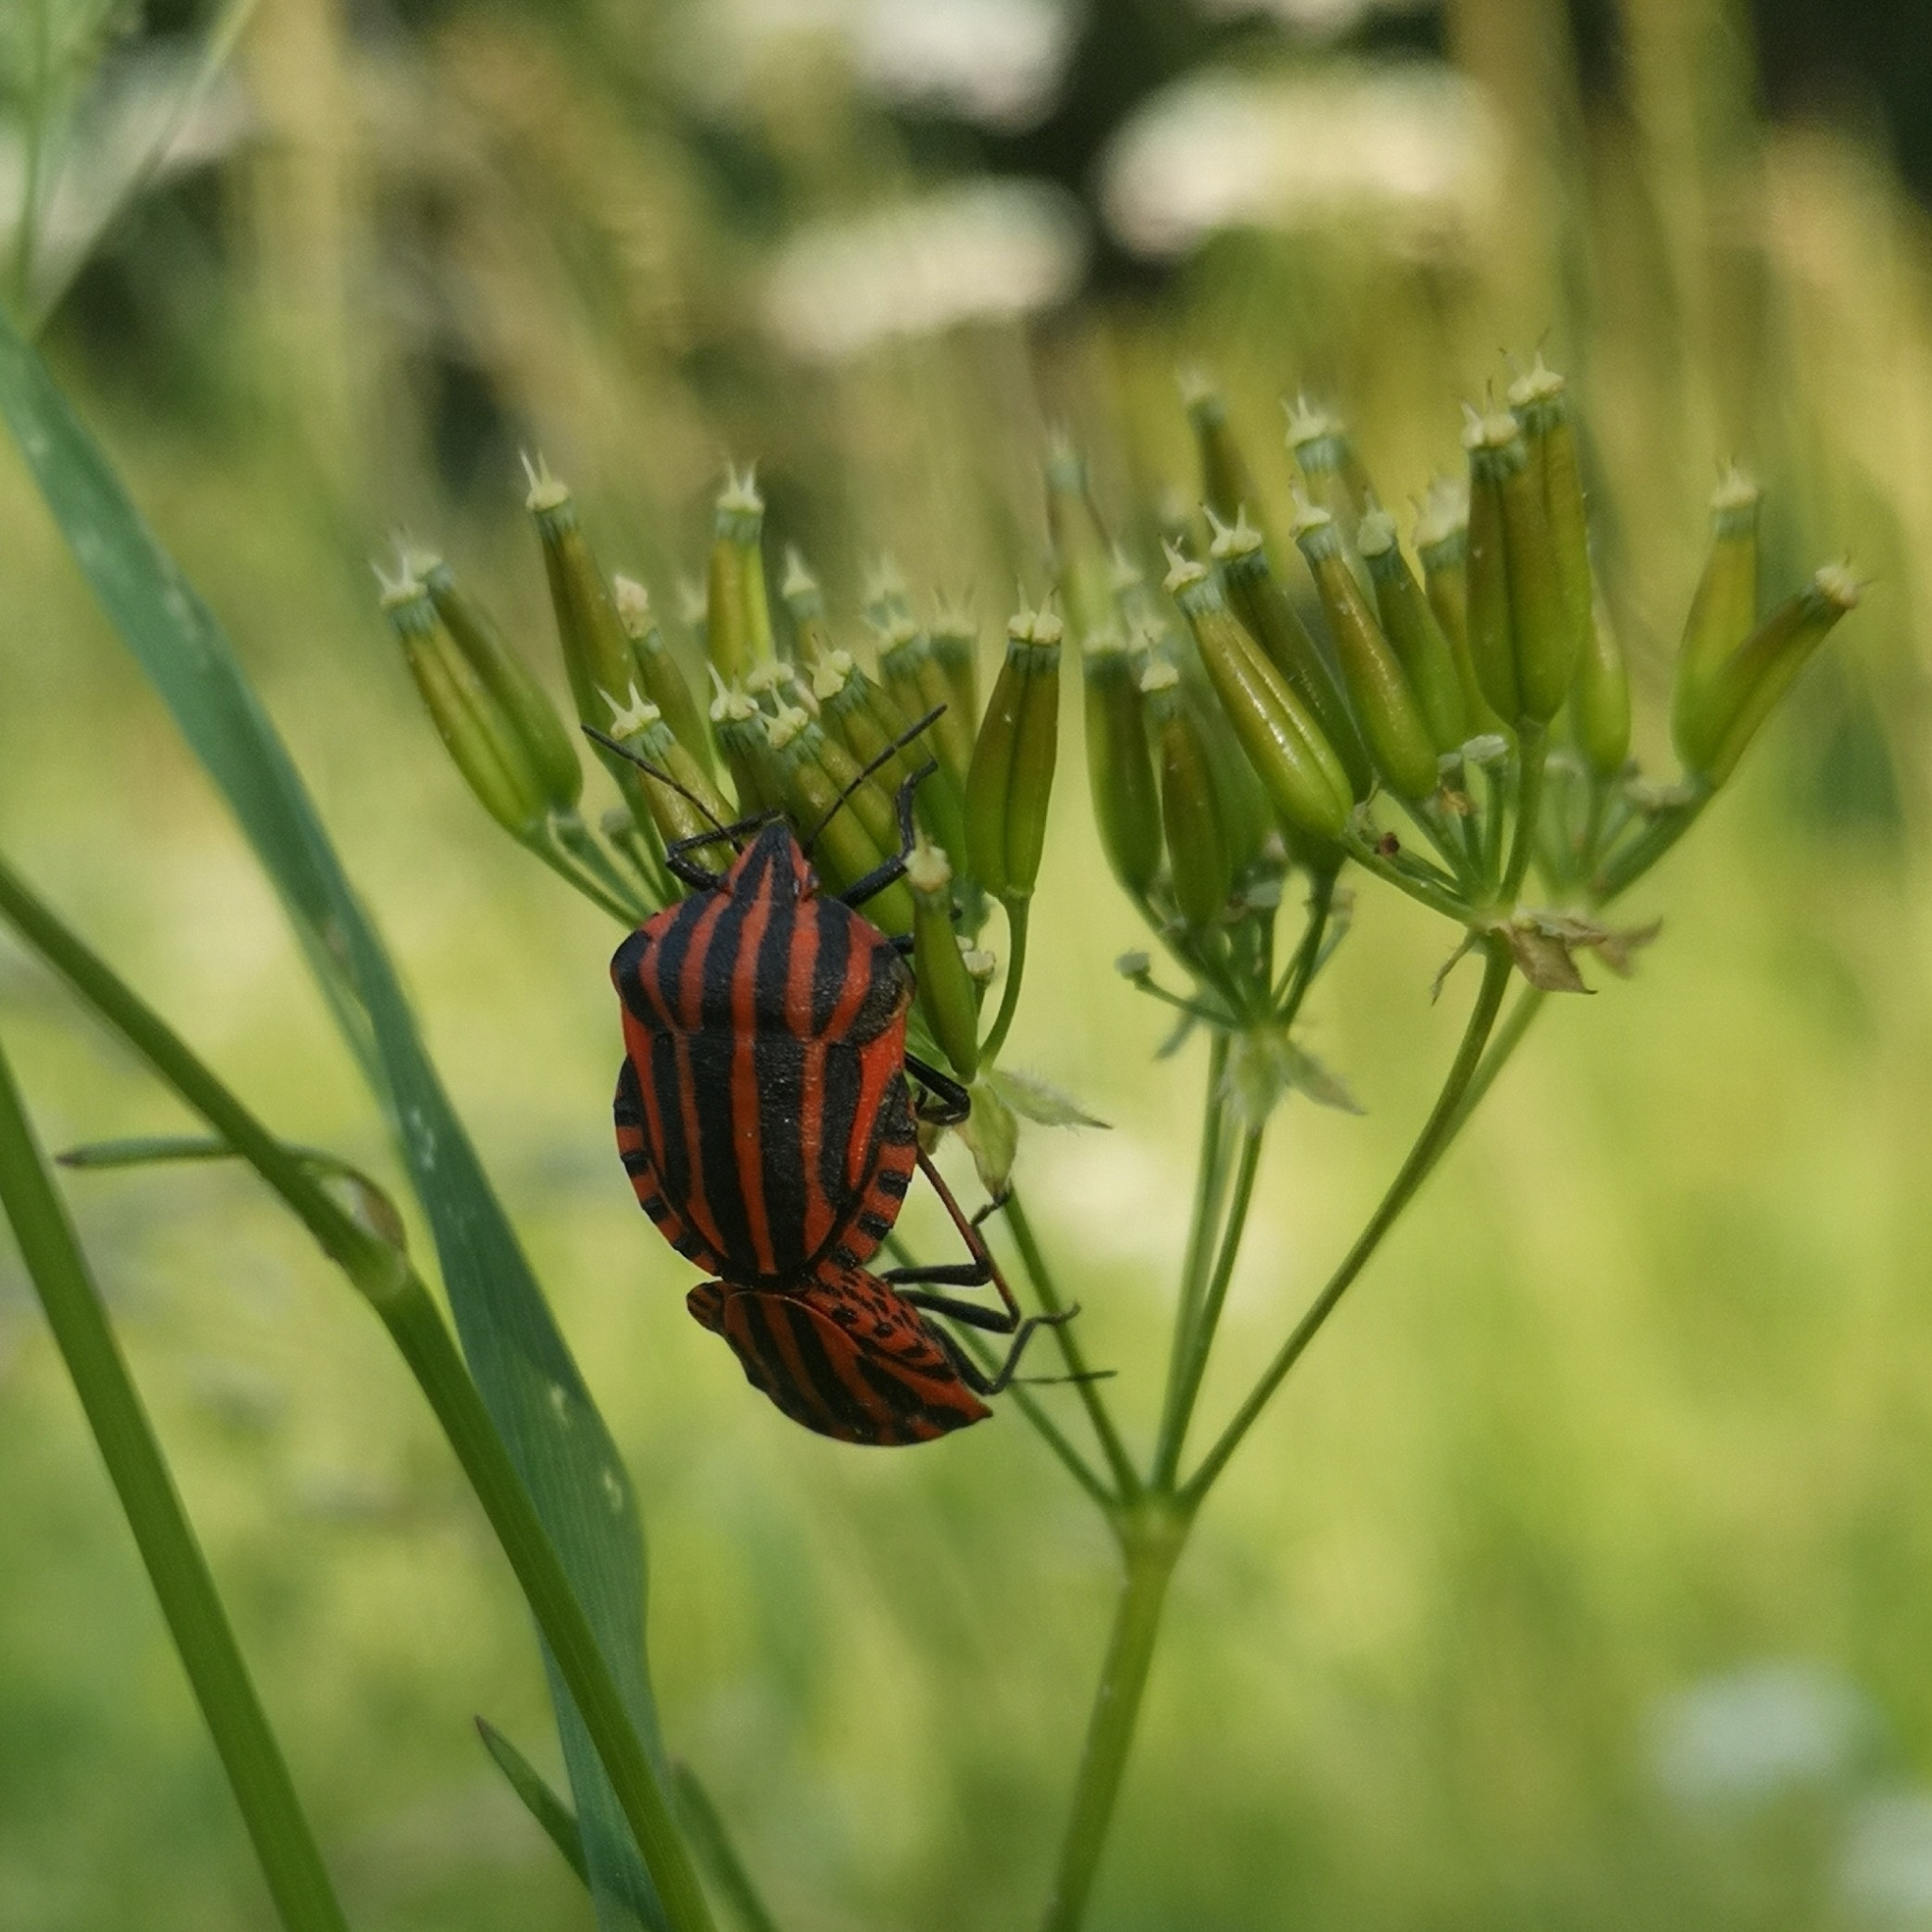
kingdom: Animalia
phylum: Arthropoda
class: Insecta
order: Hemiptera
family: Pentatomidae
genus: Graphosoma
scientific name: Graphosoma italicum
